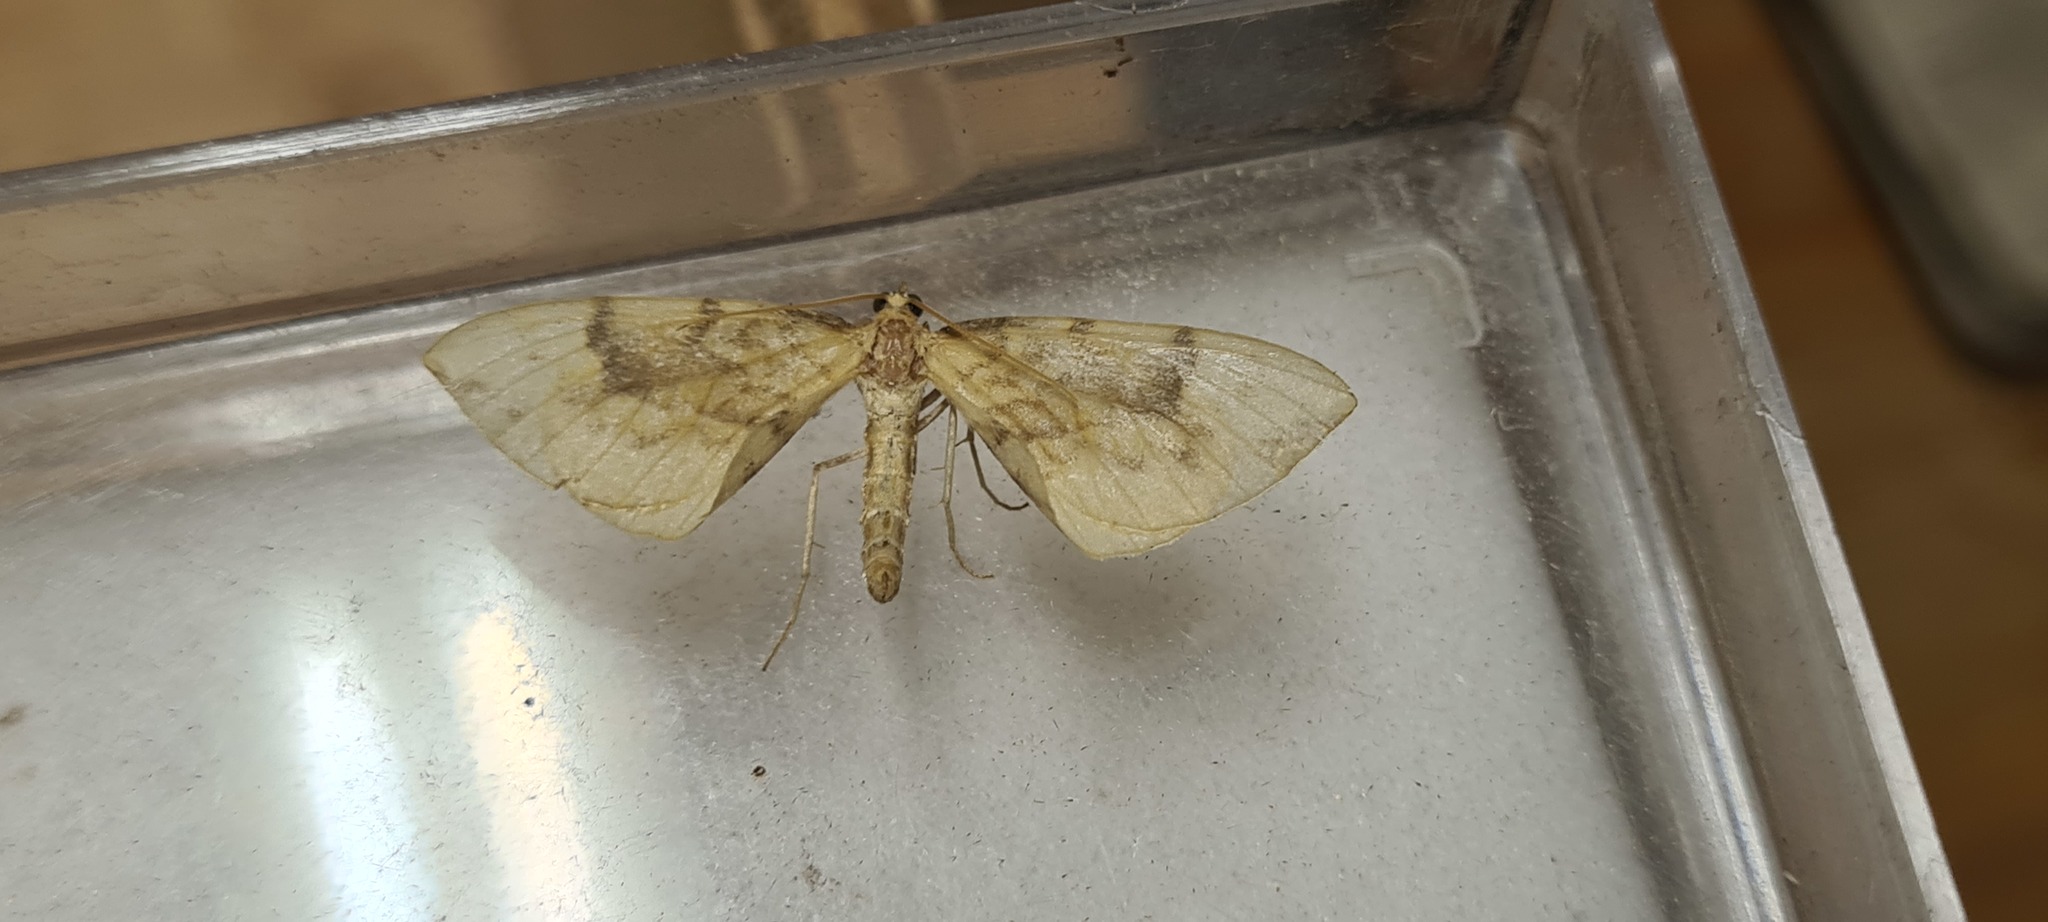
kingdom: Animalia
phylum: Arthropoda
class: Insecta
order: Lepidoptera
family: Geometridae
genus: Eulithis
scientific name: Eulithis pyraliata
